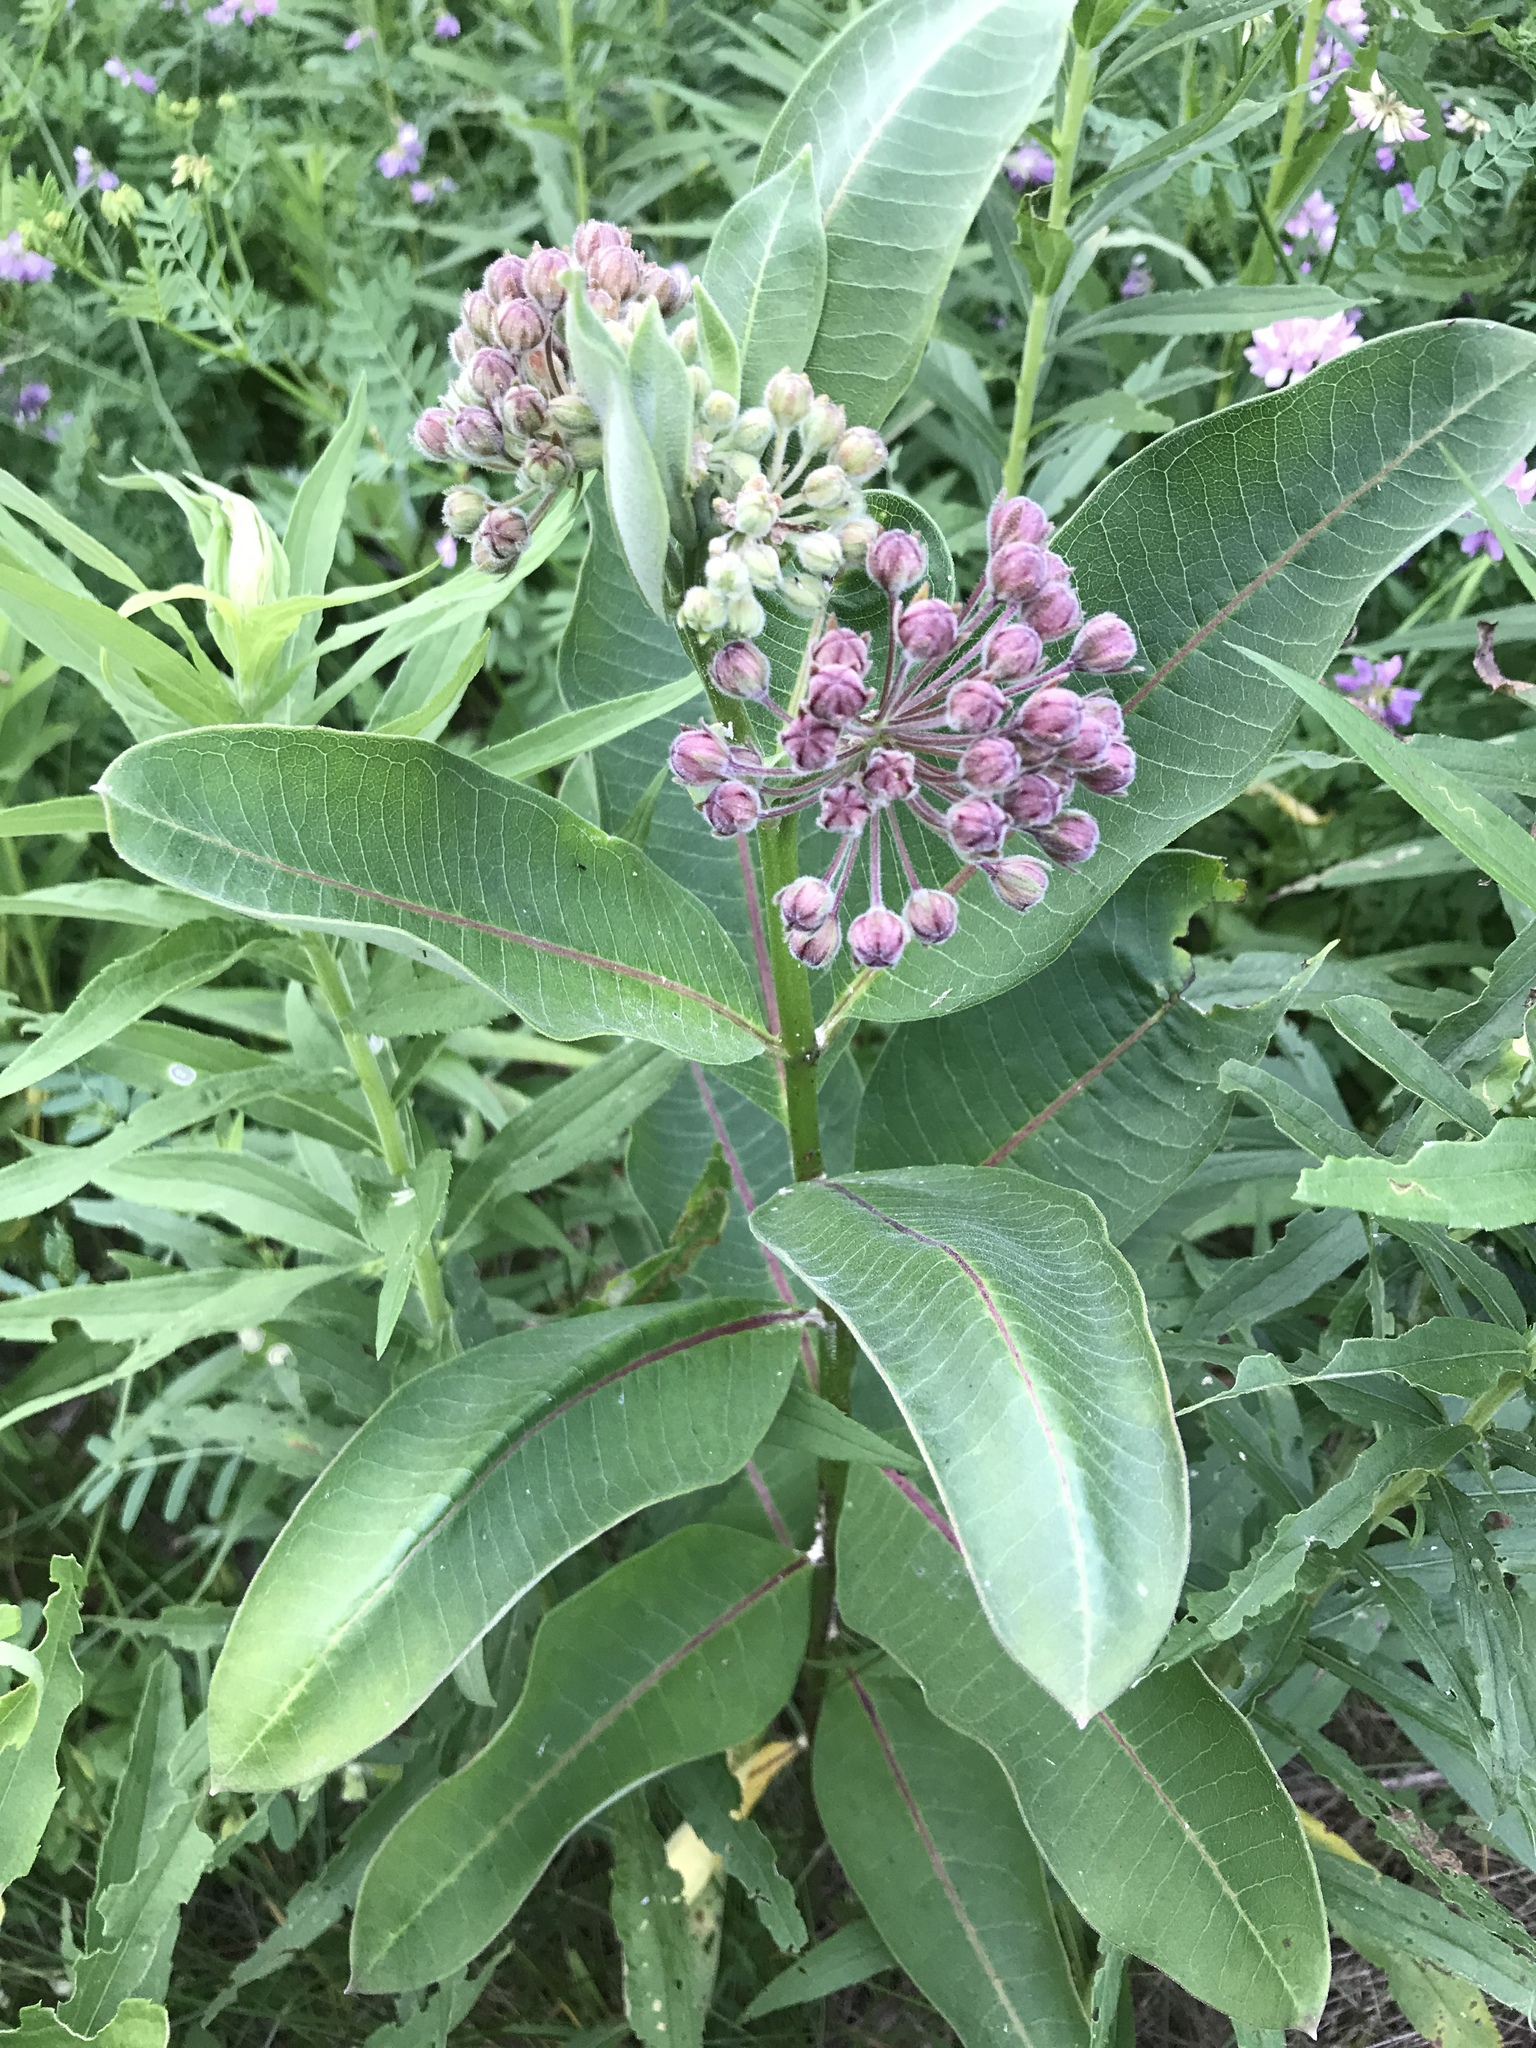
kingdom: Plantae
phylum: Tracheophyta
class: Magnoliopsida
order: Gentianales
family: Apocynaceae
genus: Asclepias
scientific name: Asclepias syriaca
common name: Common milkweed
